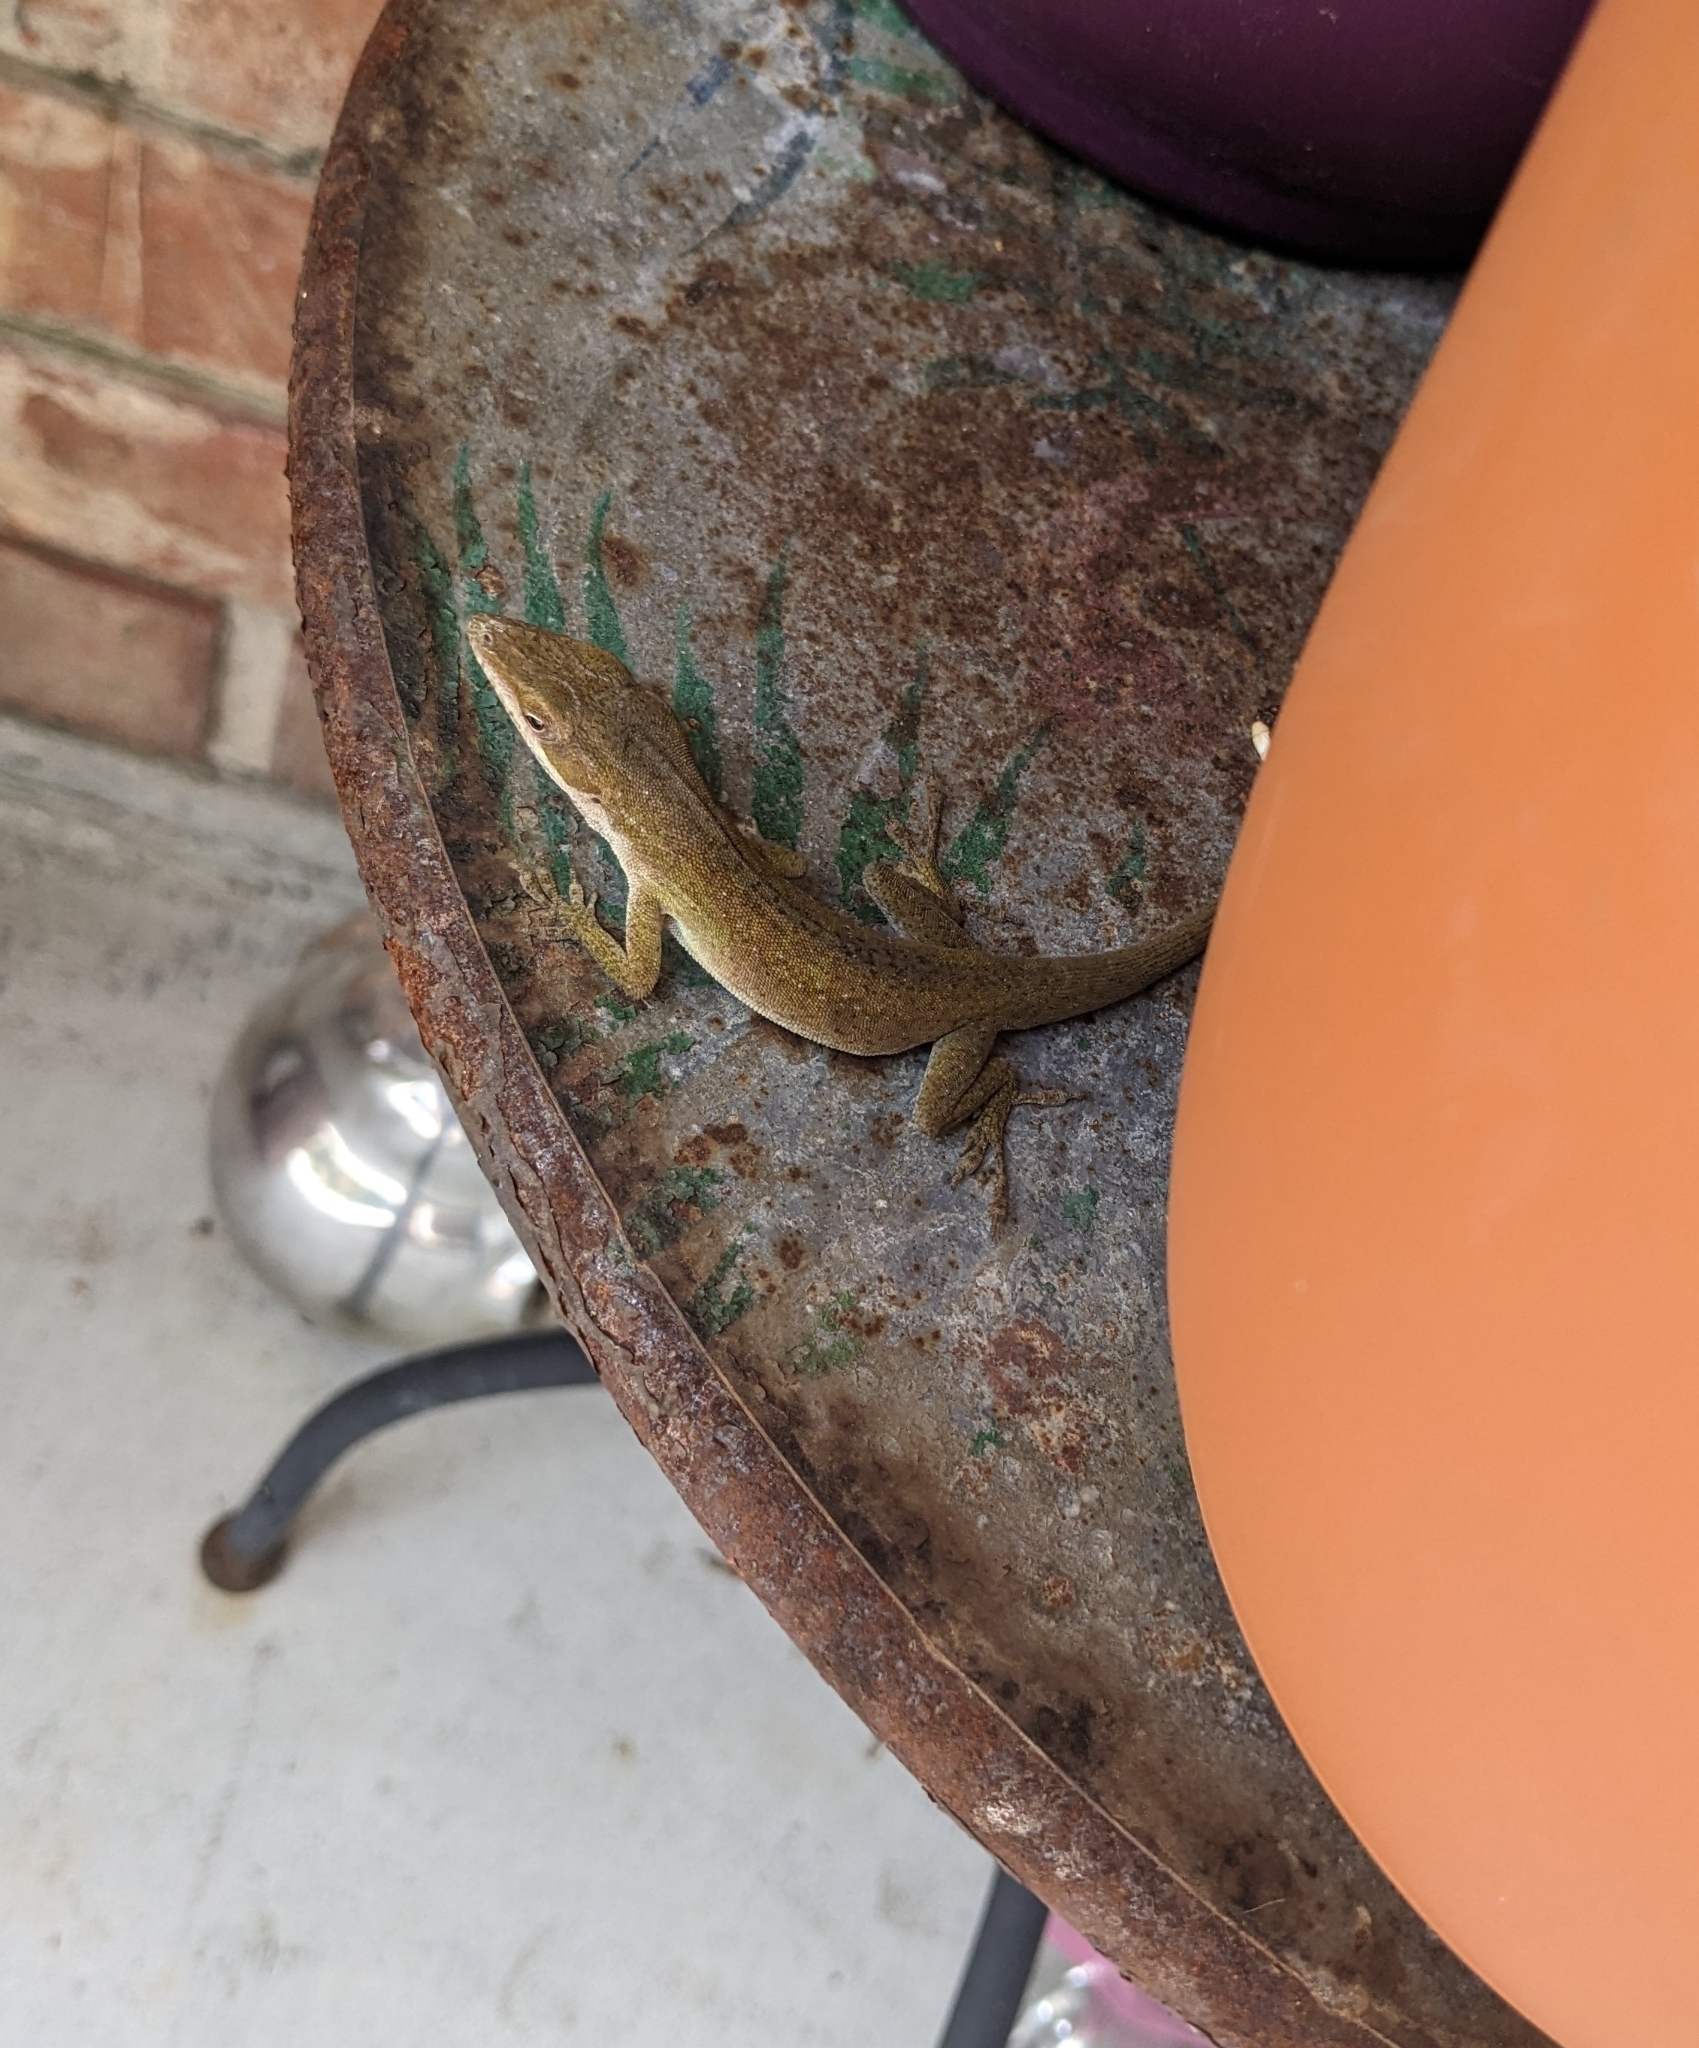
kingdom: Animalia
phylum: Chordata
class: Squamata
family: Dactyloidae
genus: Anolis
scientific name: Anolis carolinensis
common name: Green anole
